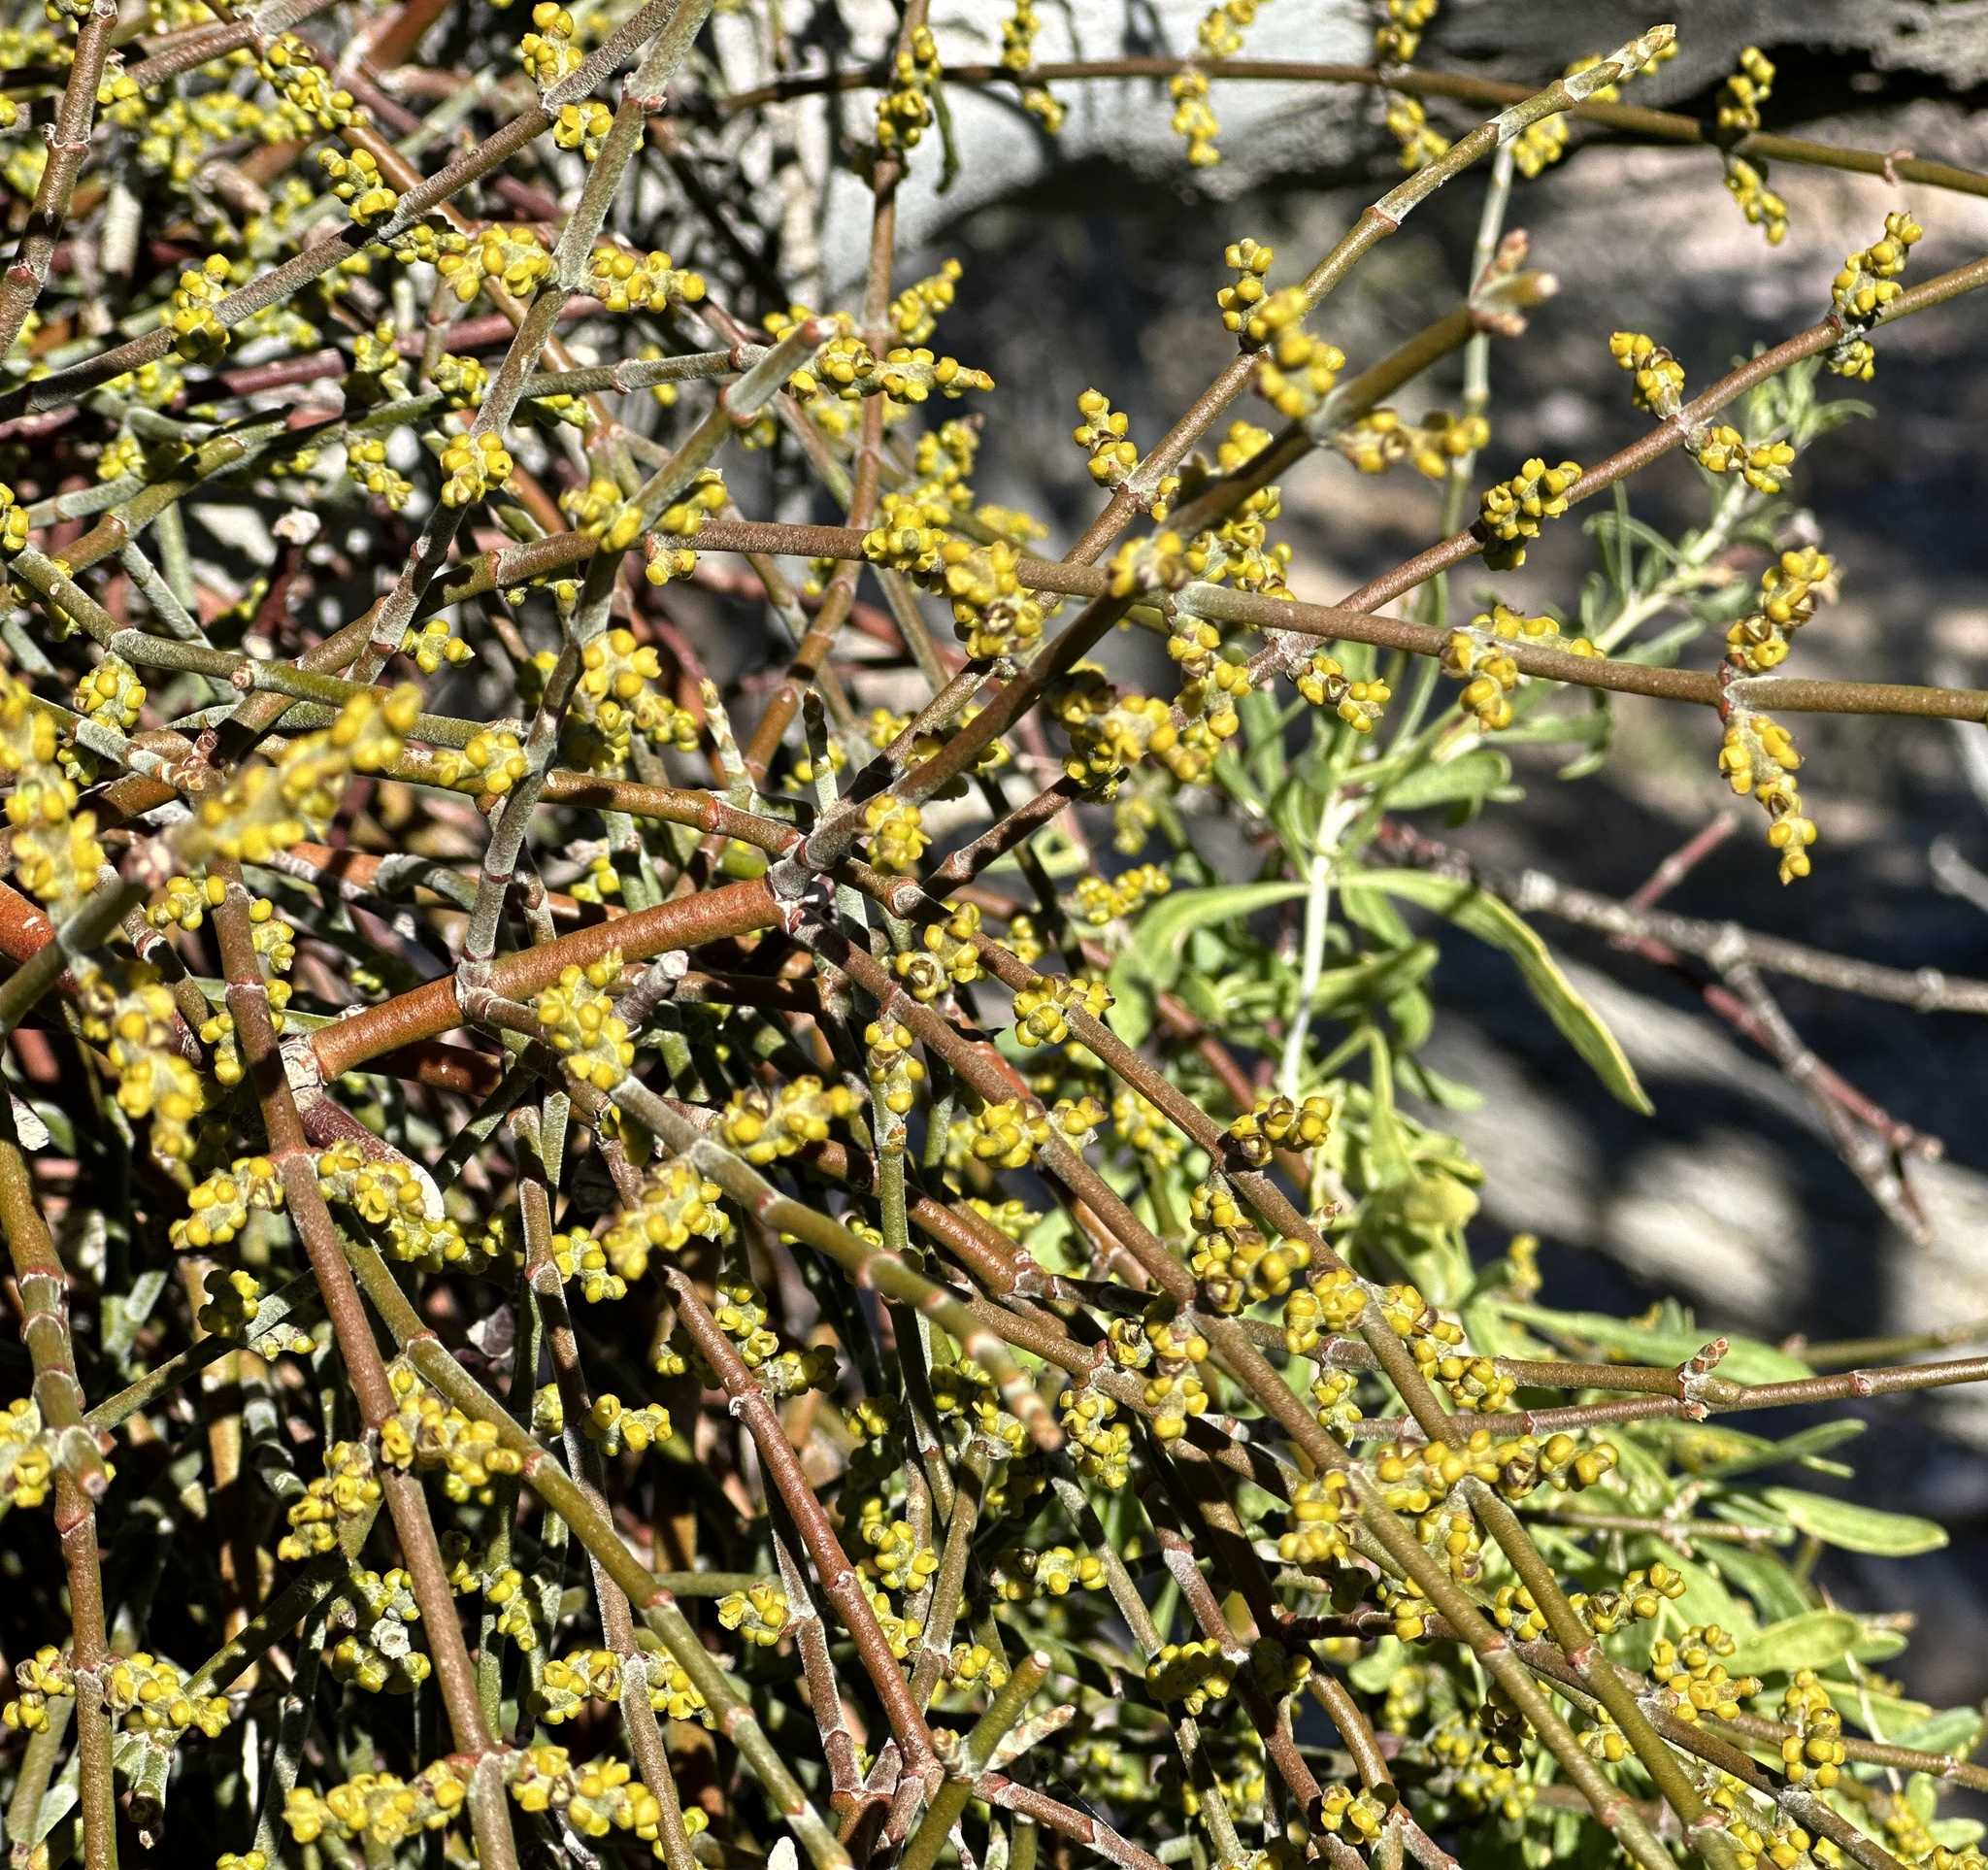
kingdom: Plantae
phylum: Tracheophyta
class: Magnoliopsida
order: Santalales
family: Viscaceae
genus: Phoradendron
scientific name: Phoradendron californicum
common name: Acacia mistletoe
